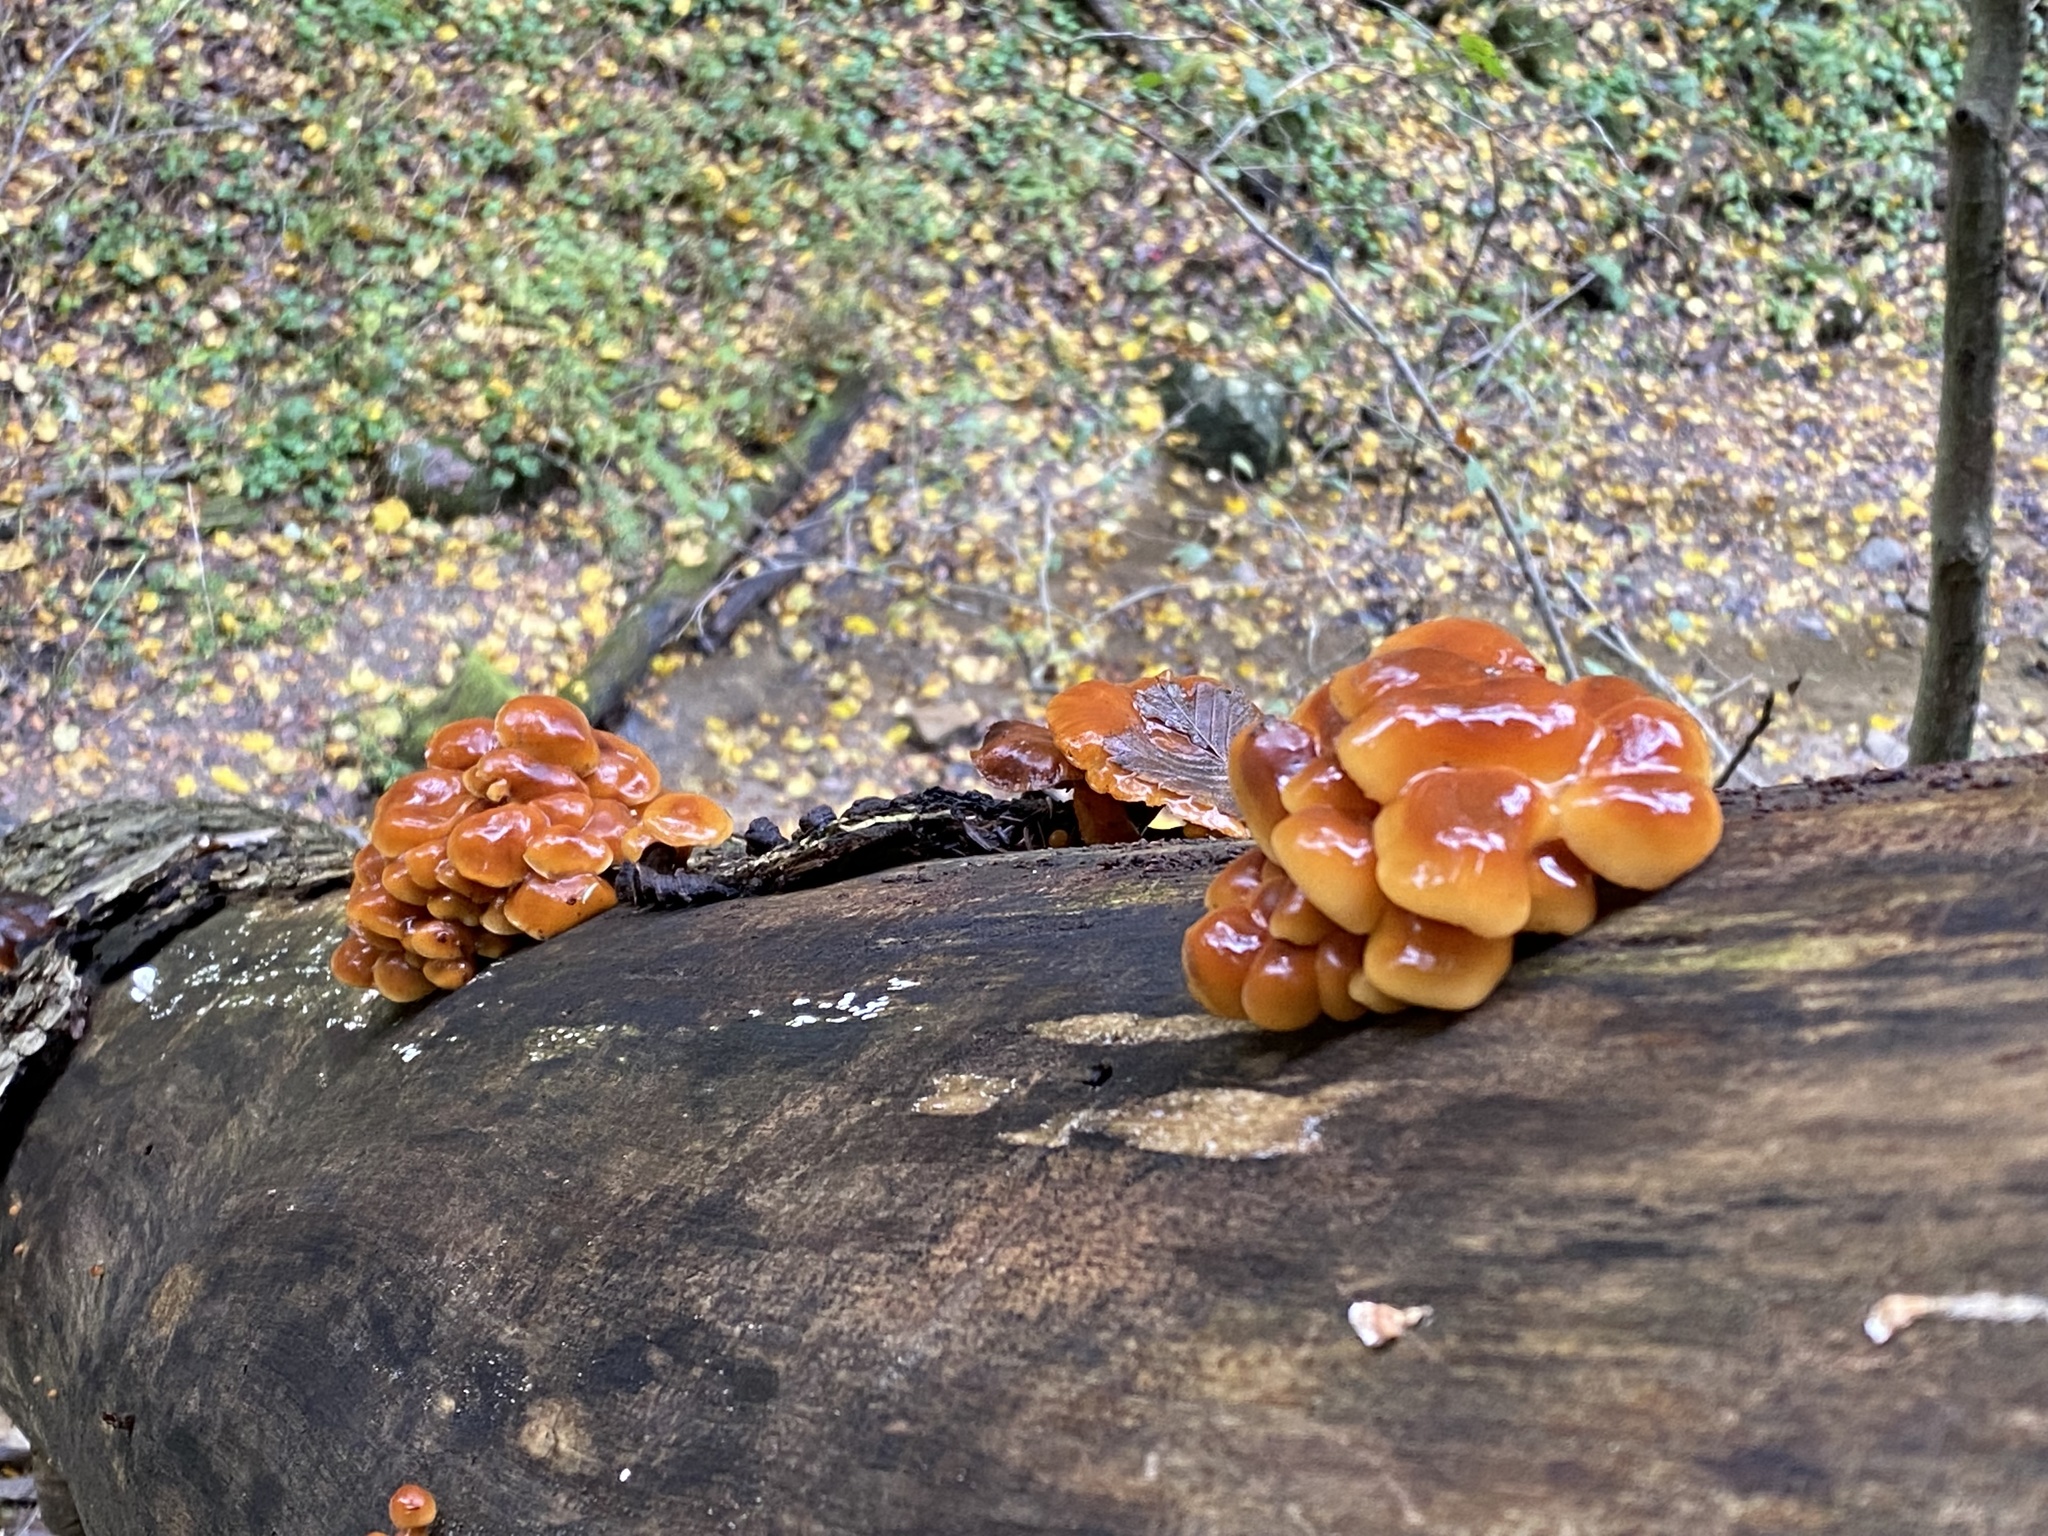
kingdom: Fungi
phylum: Basidiomycota
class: Agaricomycetes
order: Agaricales
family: Physalacriaceae
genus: Flammulina
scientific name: Flammulina velutipes
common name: Velvet shank
